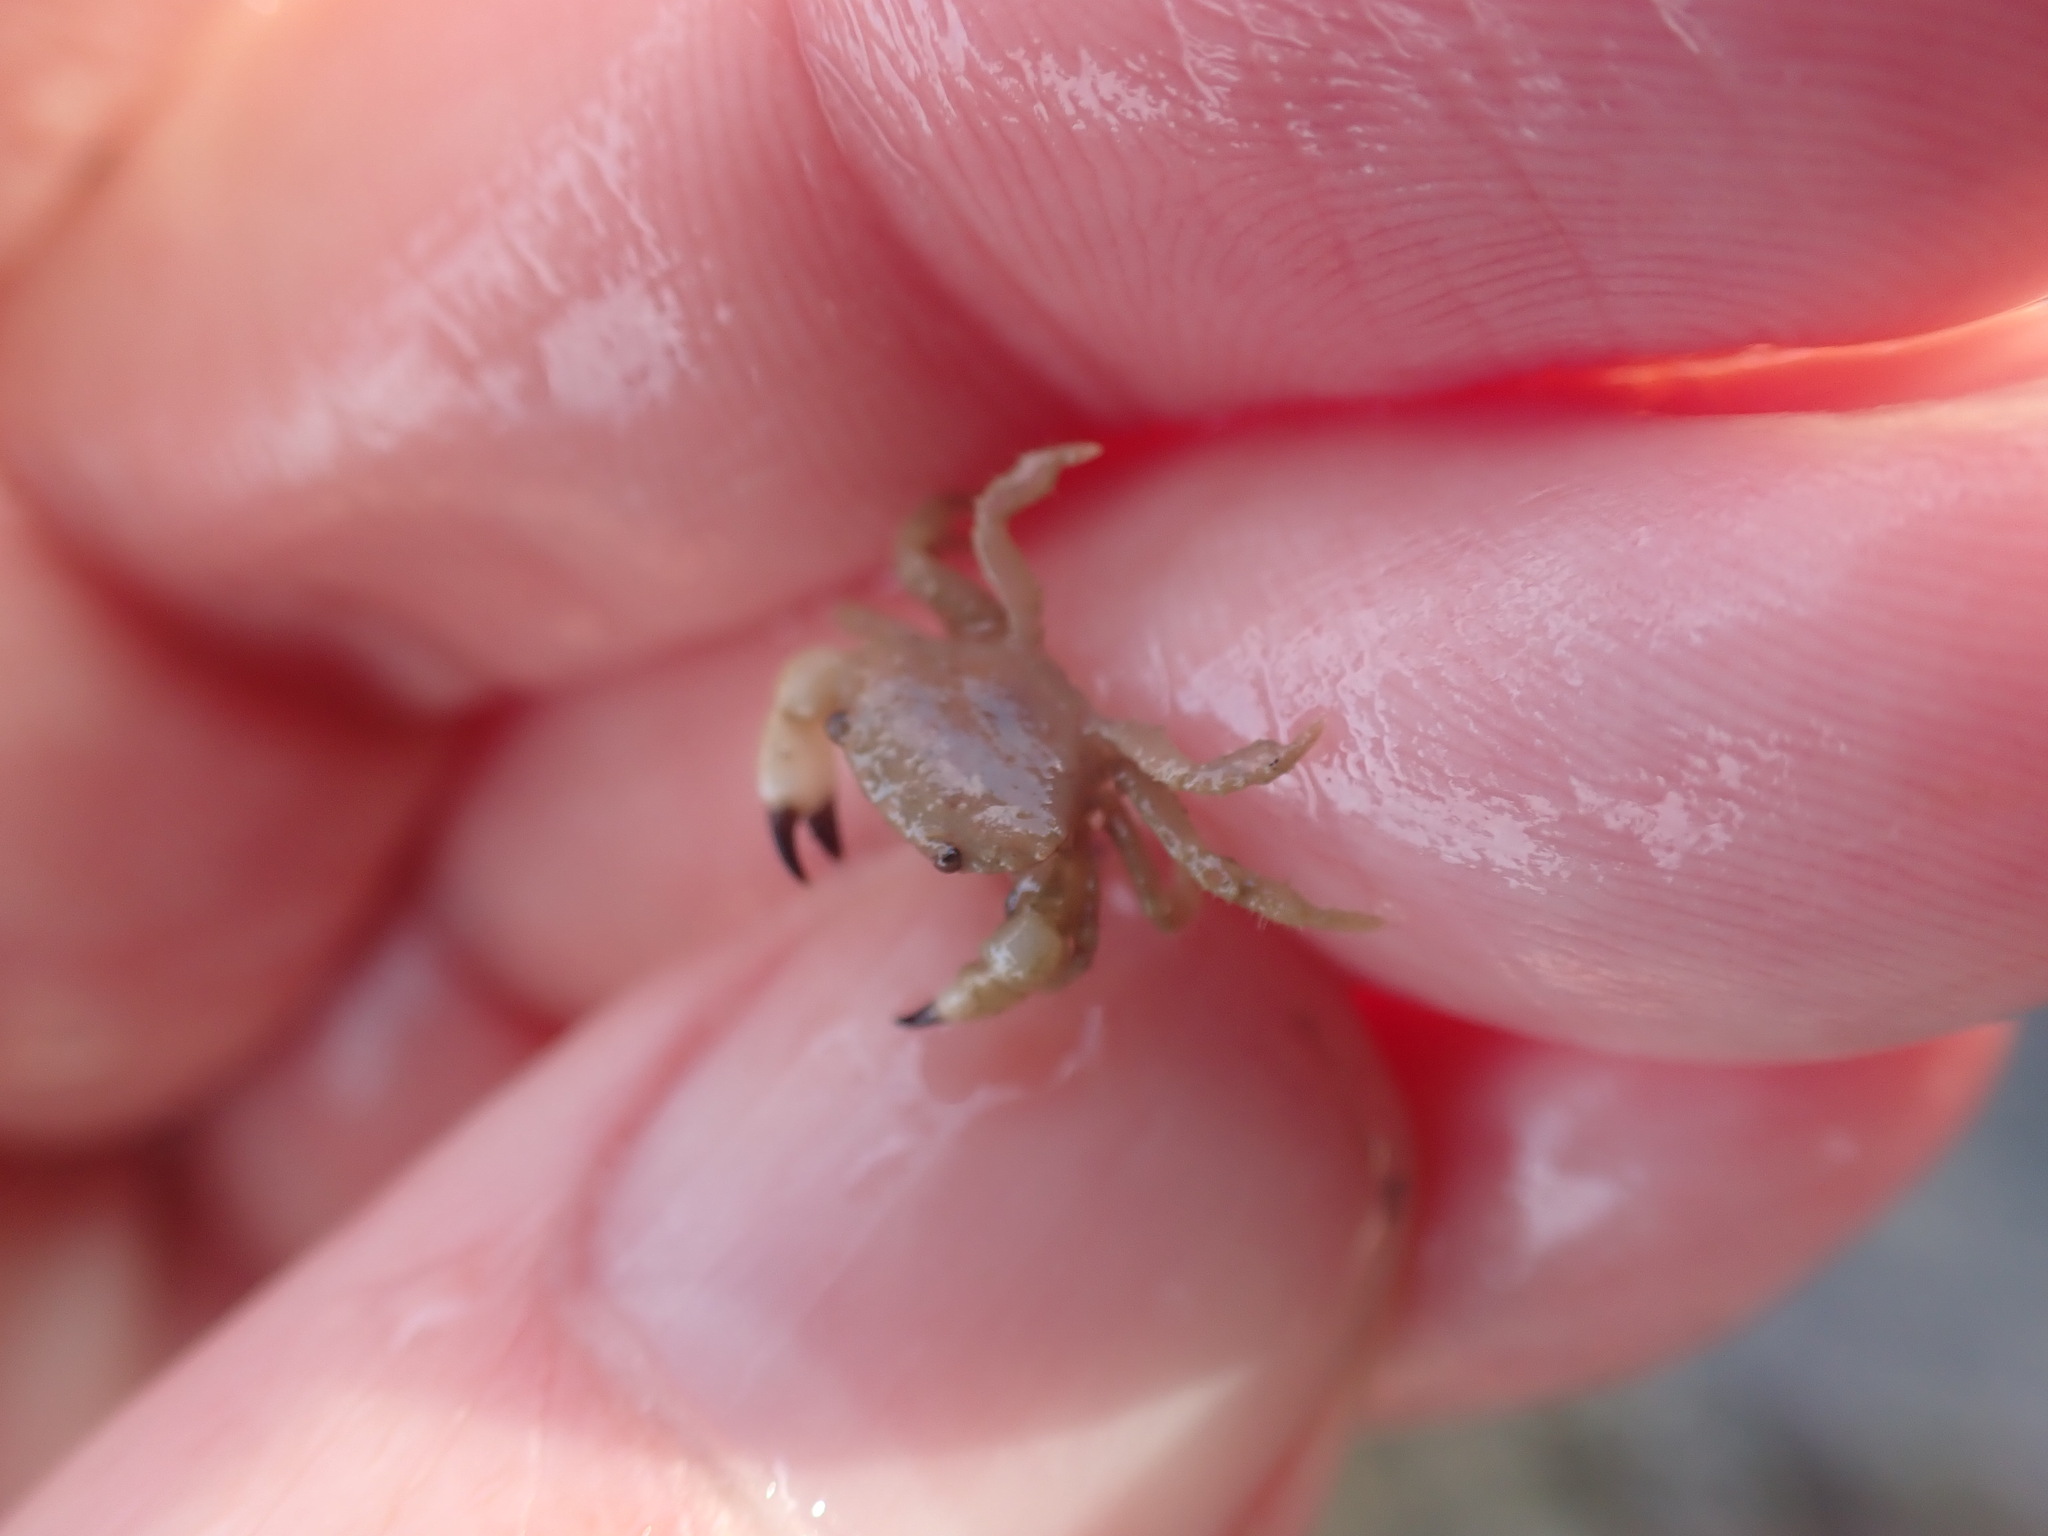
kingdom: Animalia
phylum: Arthropoda
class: Malacostraca
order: Decapoda
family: Oziidae
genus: Ozius
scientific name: Ozius deplanatus
